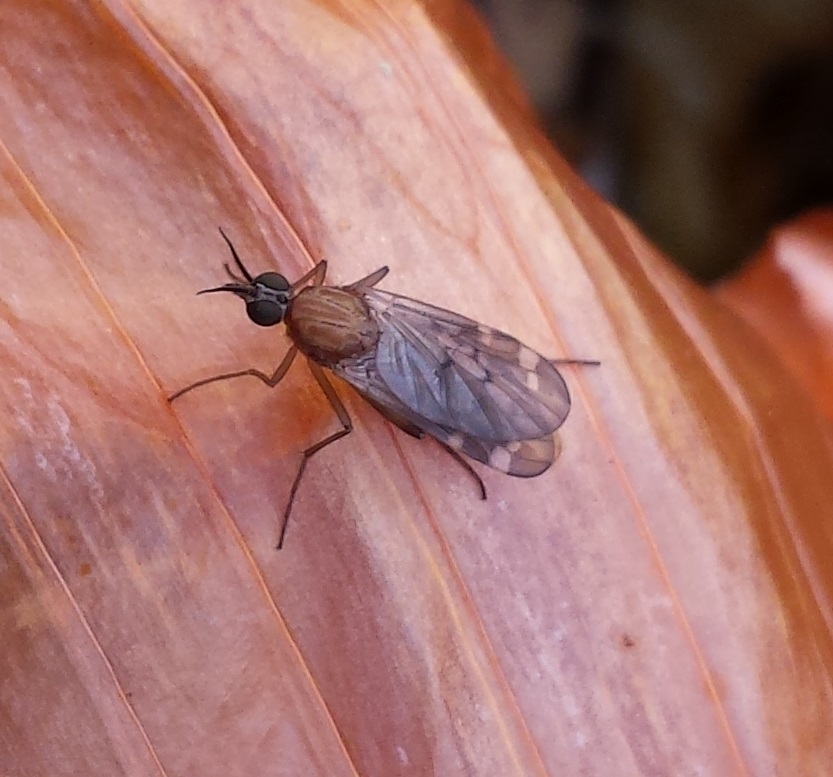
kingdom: Animalia
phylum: Arthropoda
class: Insecta
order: Diptera
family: Anisopodidae
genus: Sylvicola
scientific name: Sylvicola alternata
